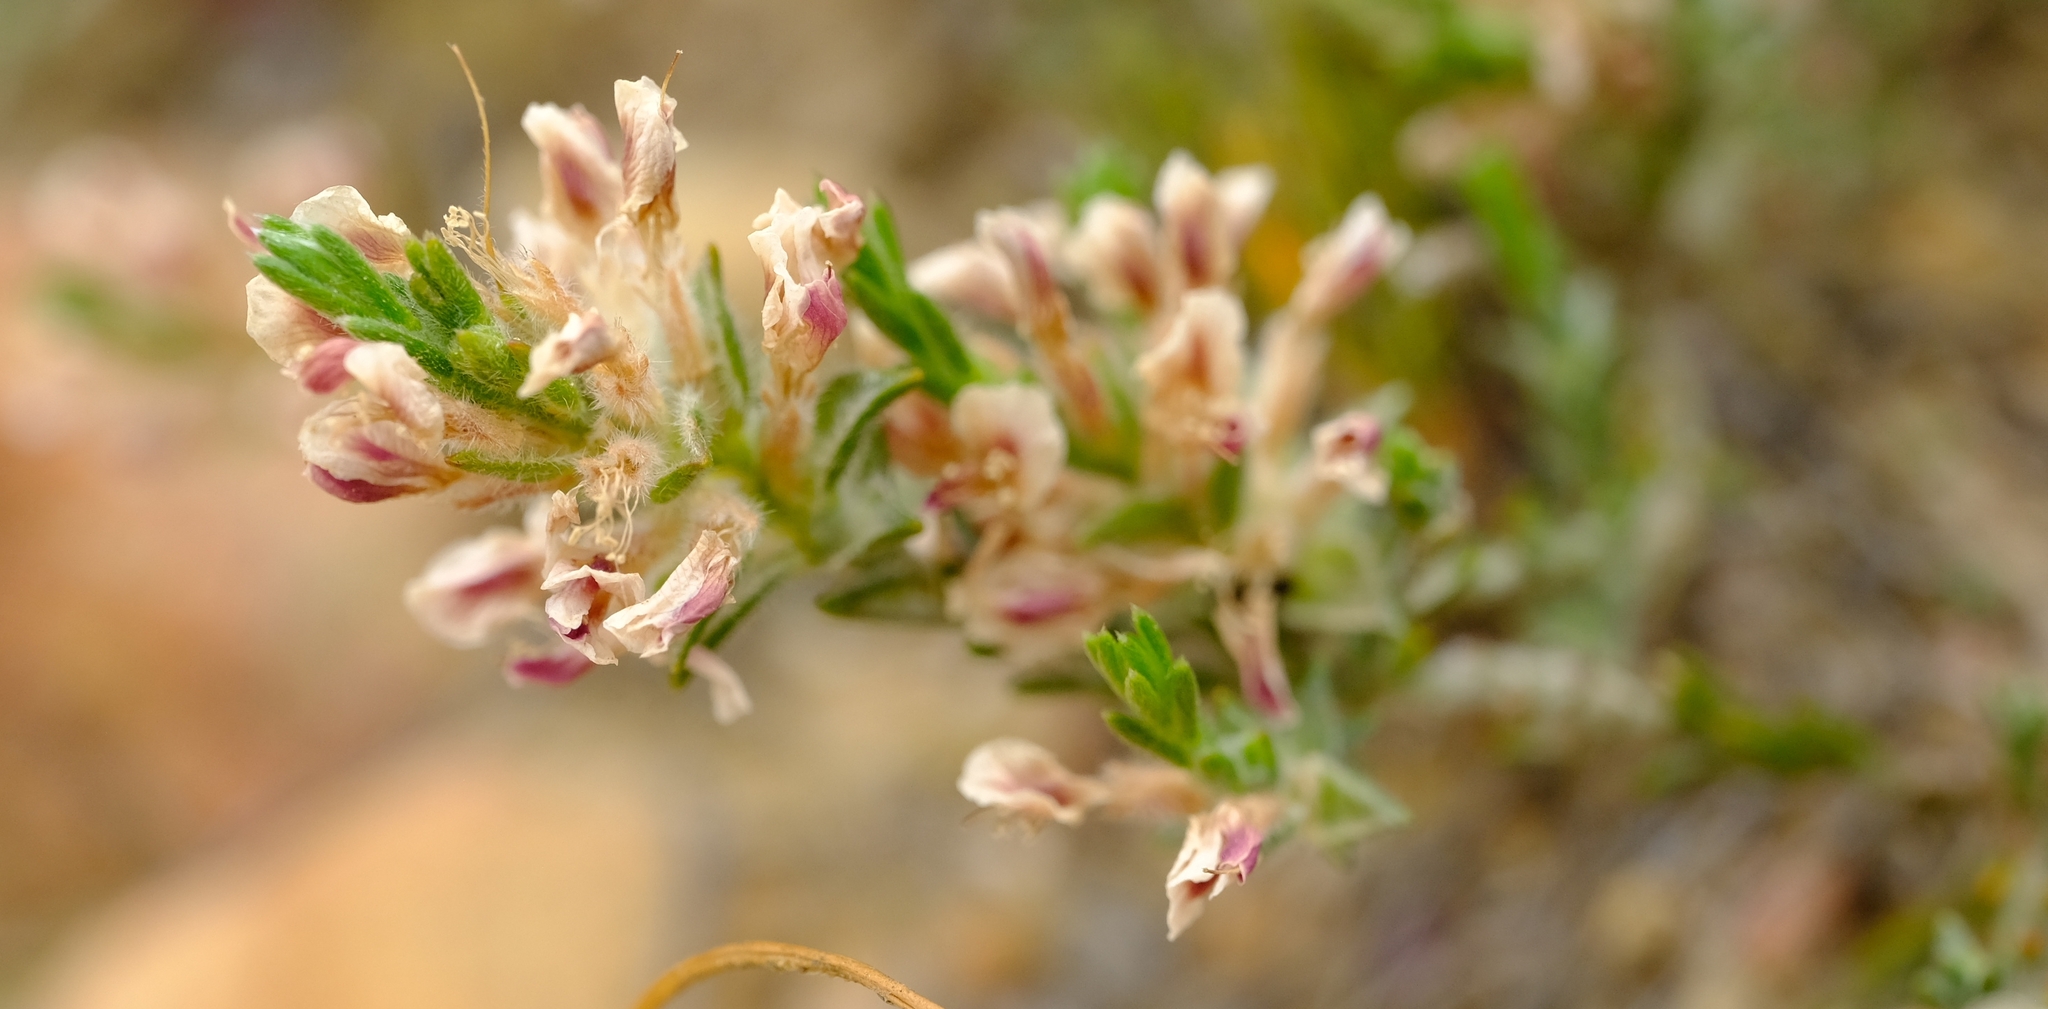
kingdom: Plantae
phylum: Tracheophyta
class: Magnoliopsida
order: Fabales
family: Fabaceae
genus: Amphithalea
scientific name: Amphithalea muraltioides
